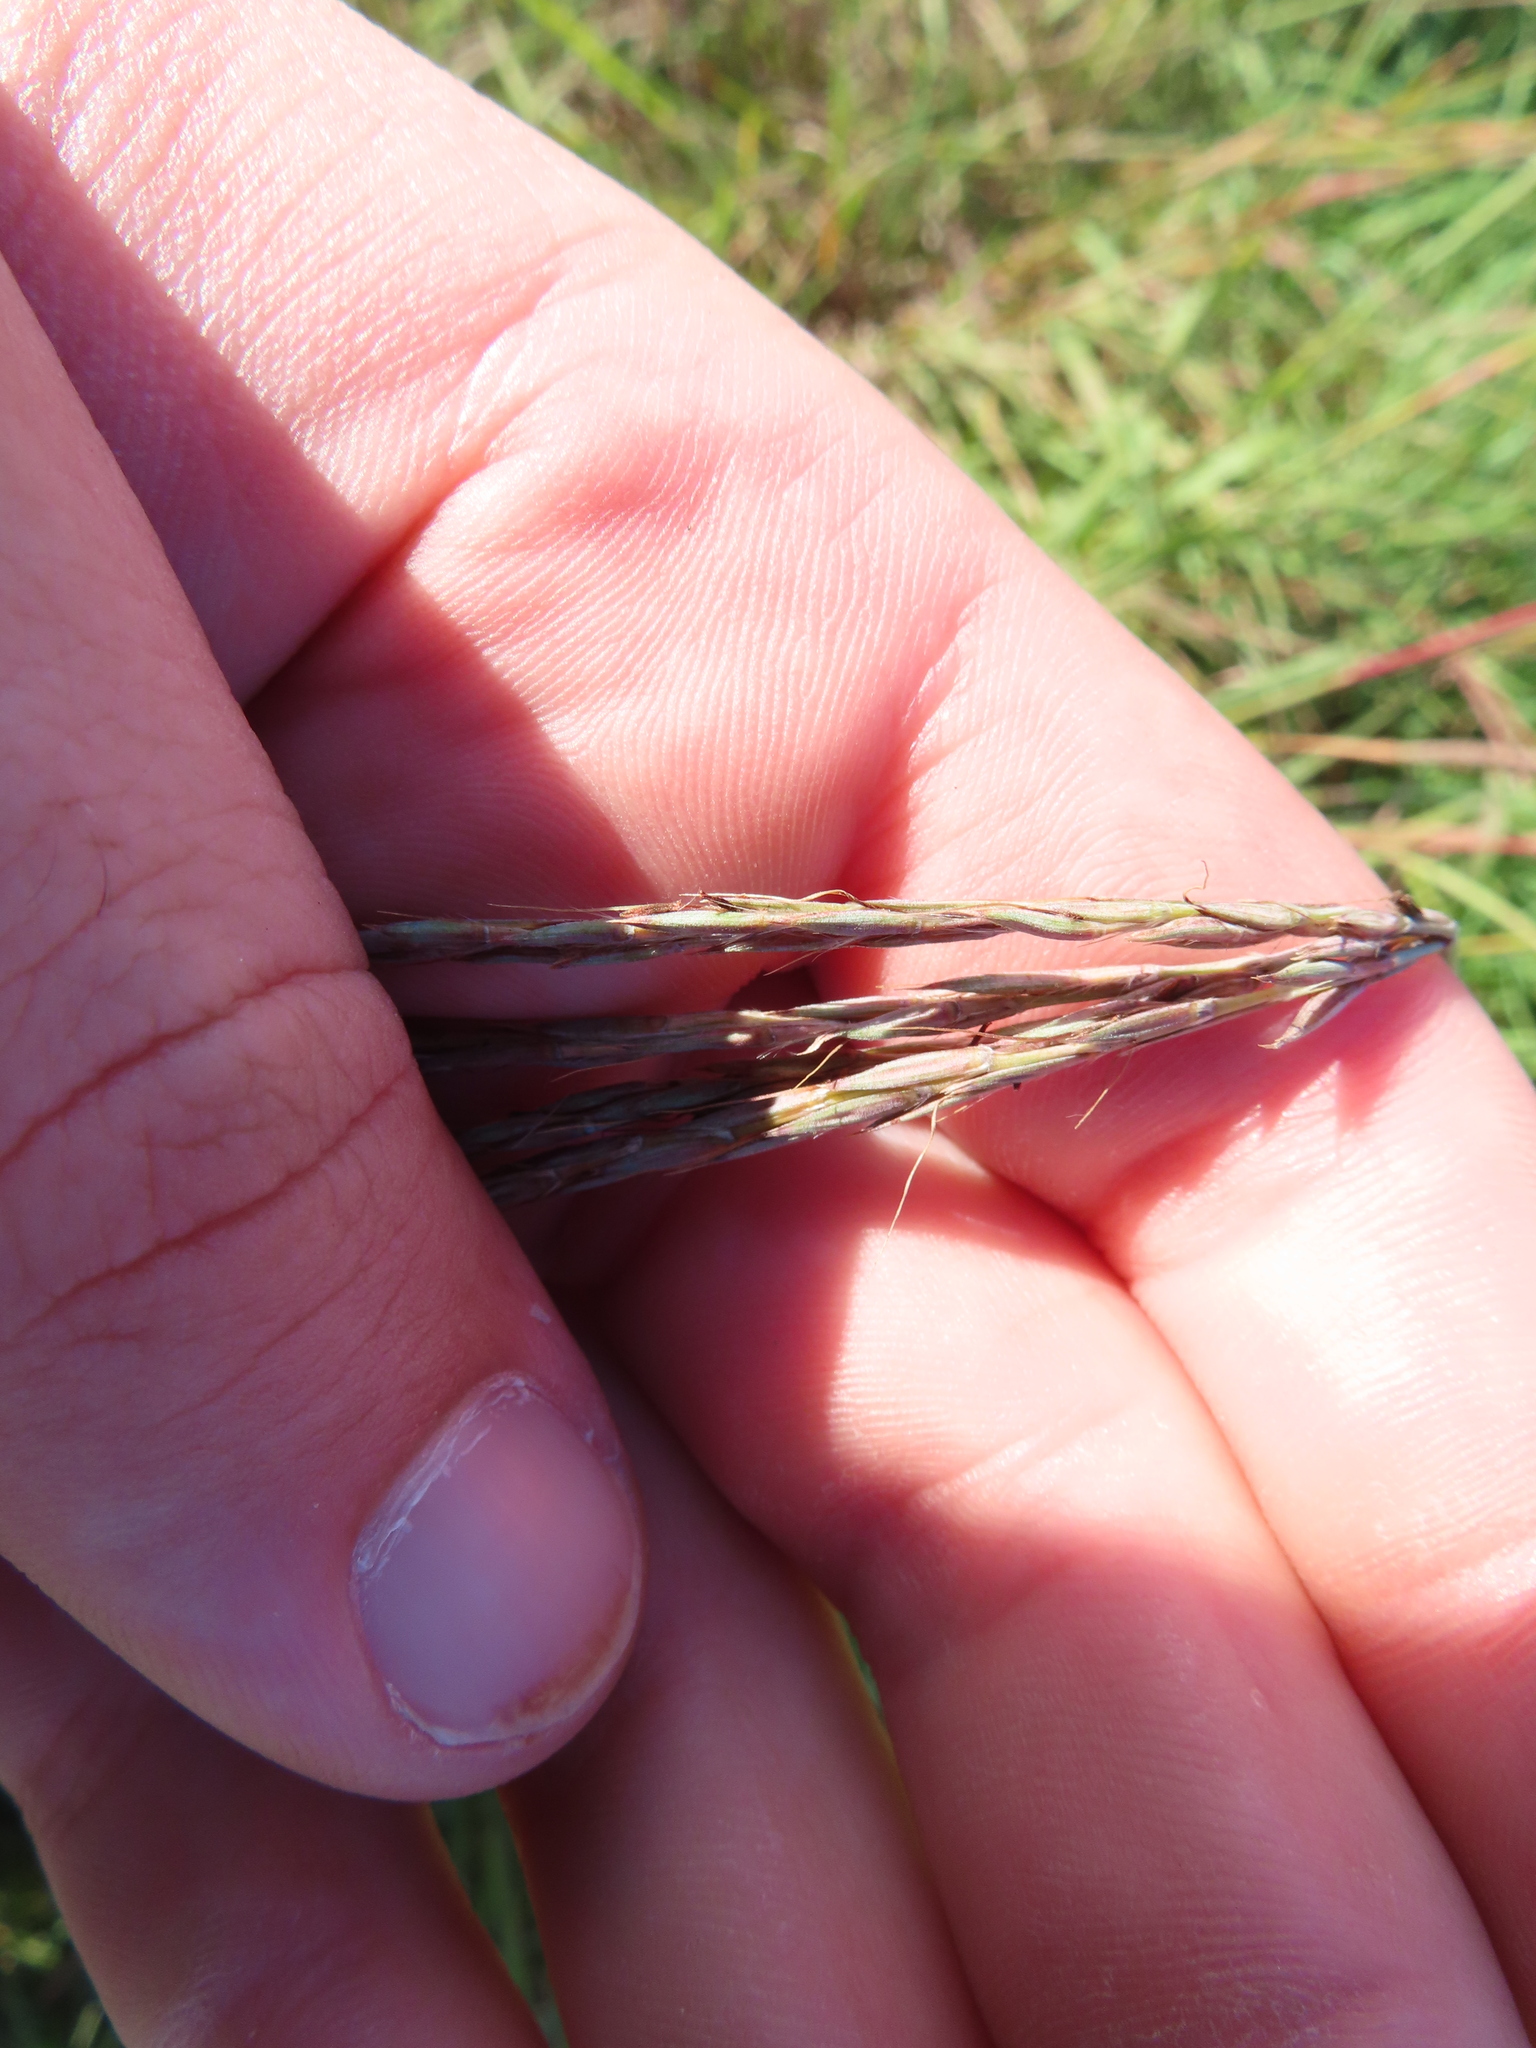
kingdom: Plantae
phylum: Tracheophyta
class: Liliopsida
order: Poales
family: Poaceae
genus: Andropogon
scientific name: Andropogon gerardi
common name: Big bluestem
